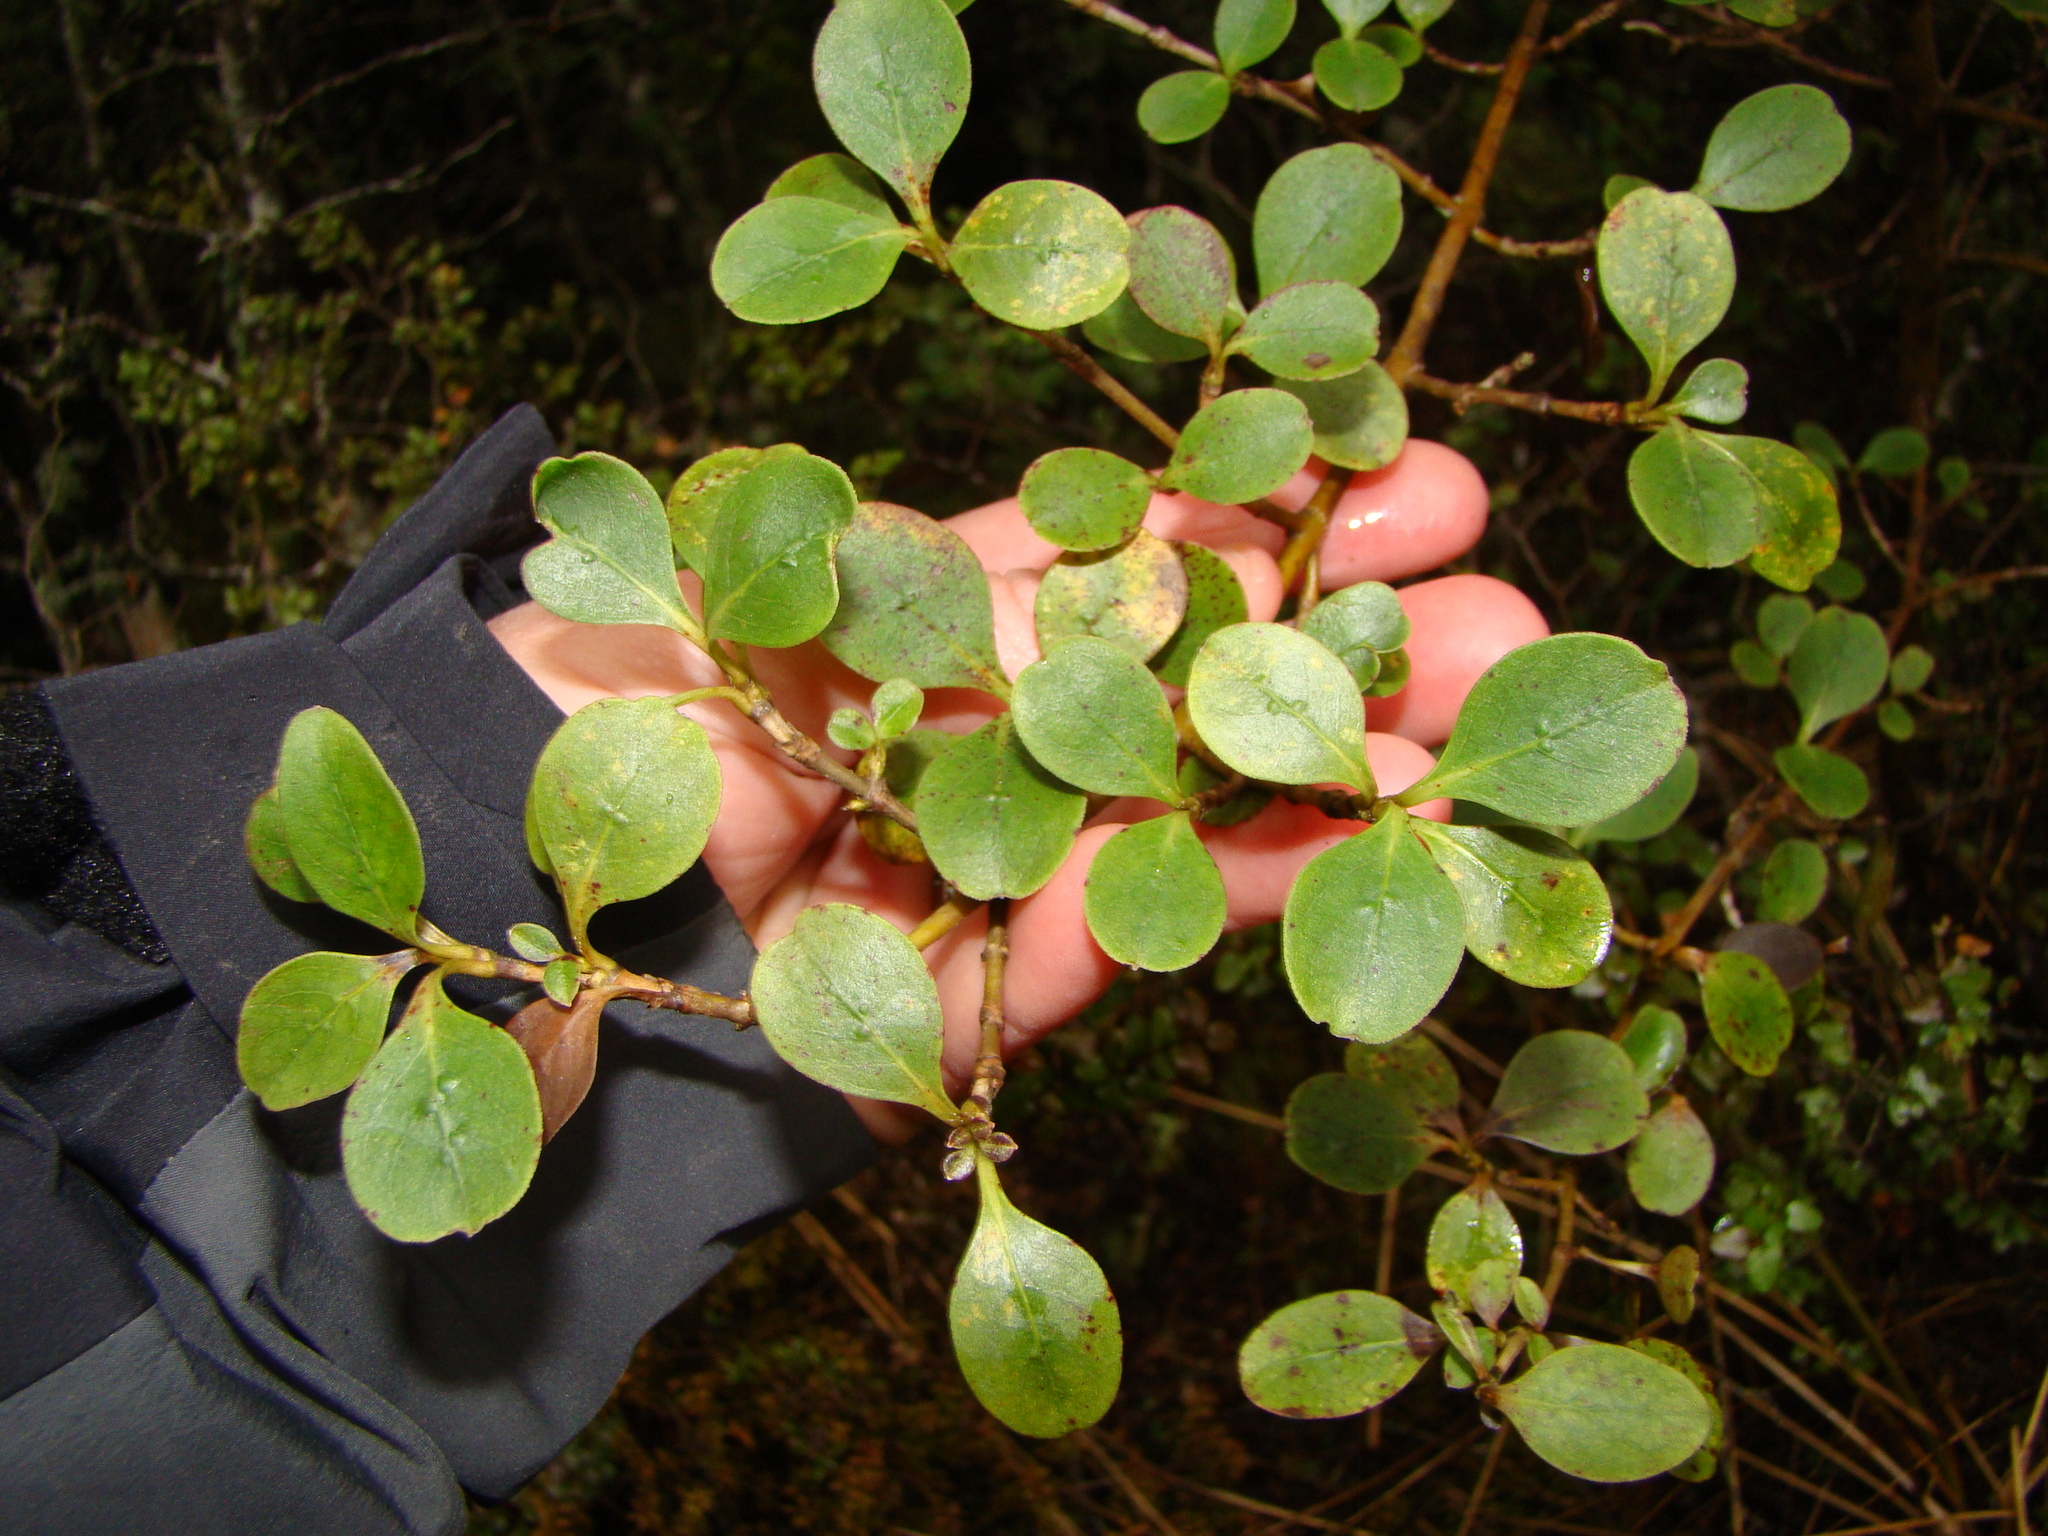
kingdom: Plantae
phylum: Tracheophyta
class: Magnoliopsida
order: Gentianales
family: Rubiaceae
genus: Coprosma
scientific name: Coprosma foetidissima
